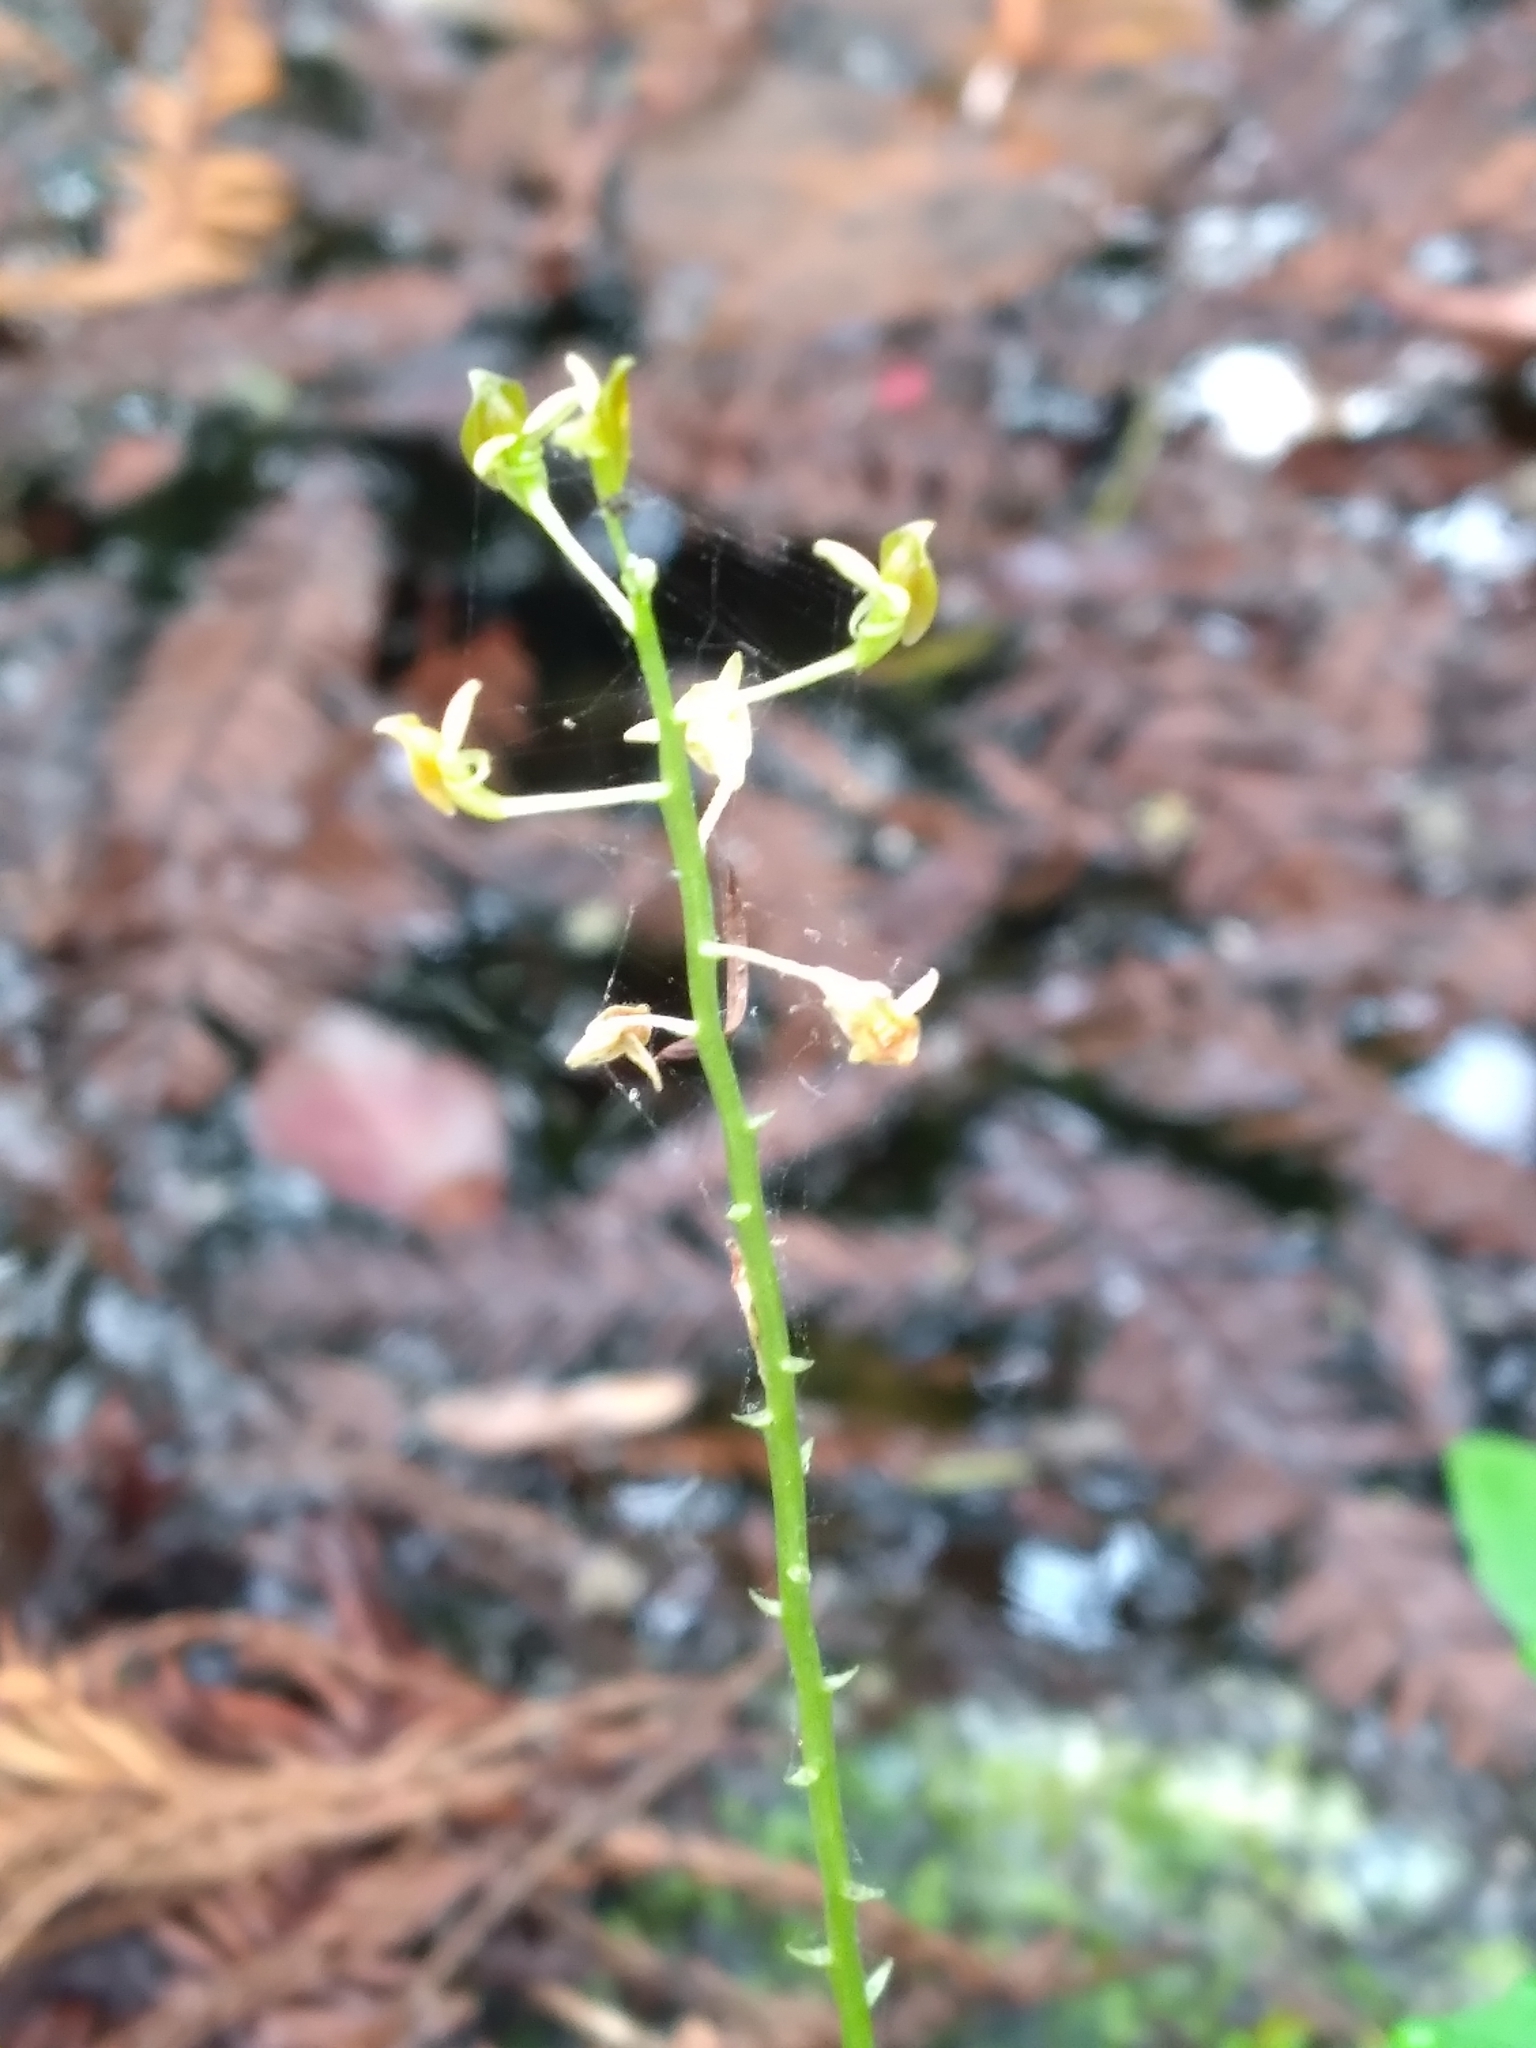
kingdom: Plantae
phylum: Tracheophyta
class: Liliopsida
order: Asparagales
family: Orchidaceae
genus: Malaxis
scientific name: Malaxis spicata
